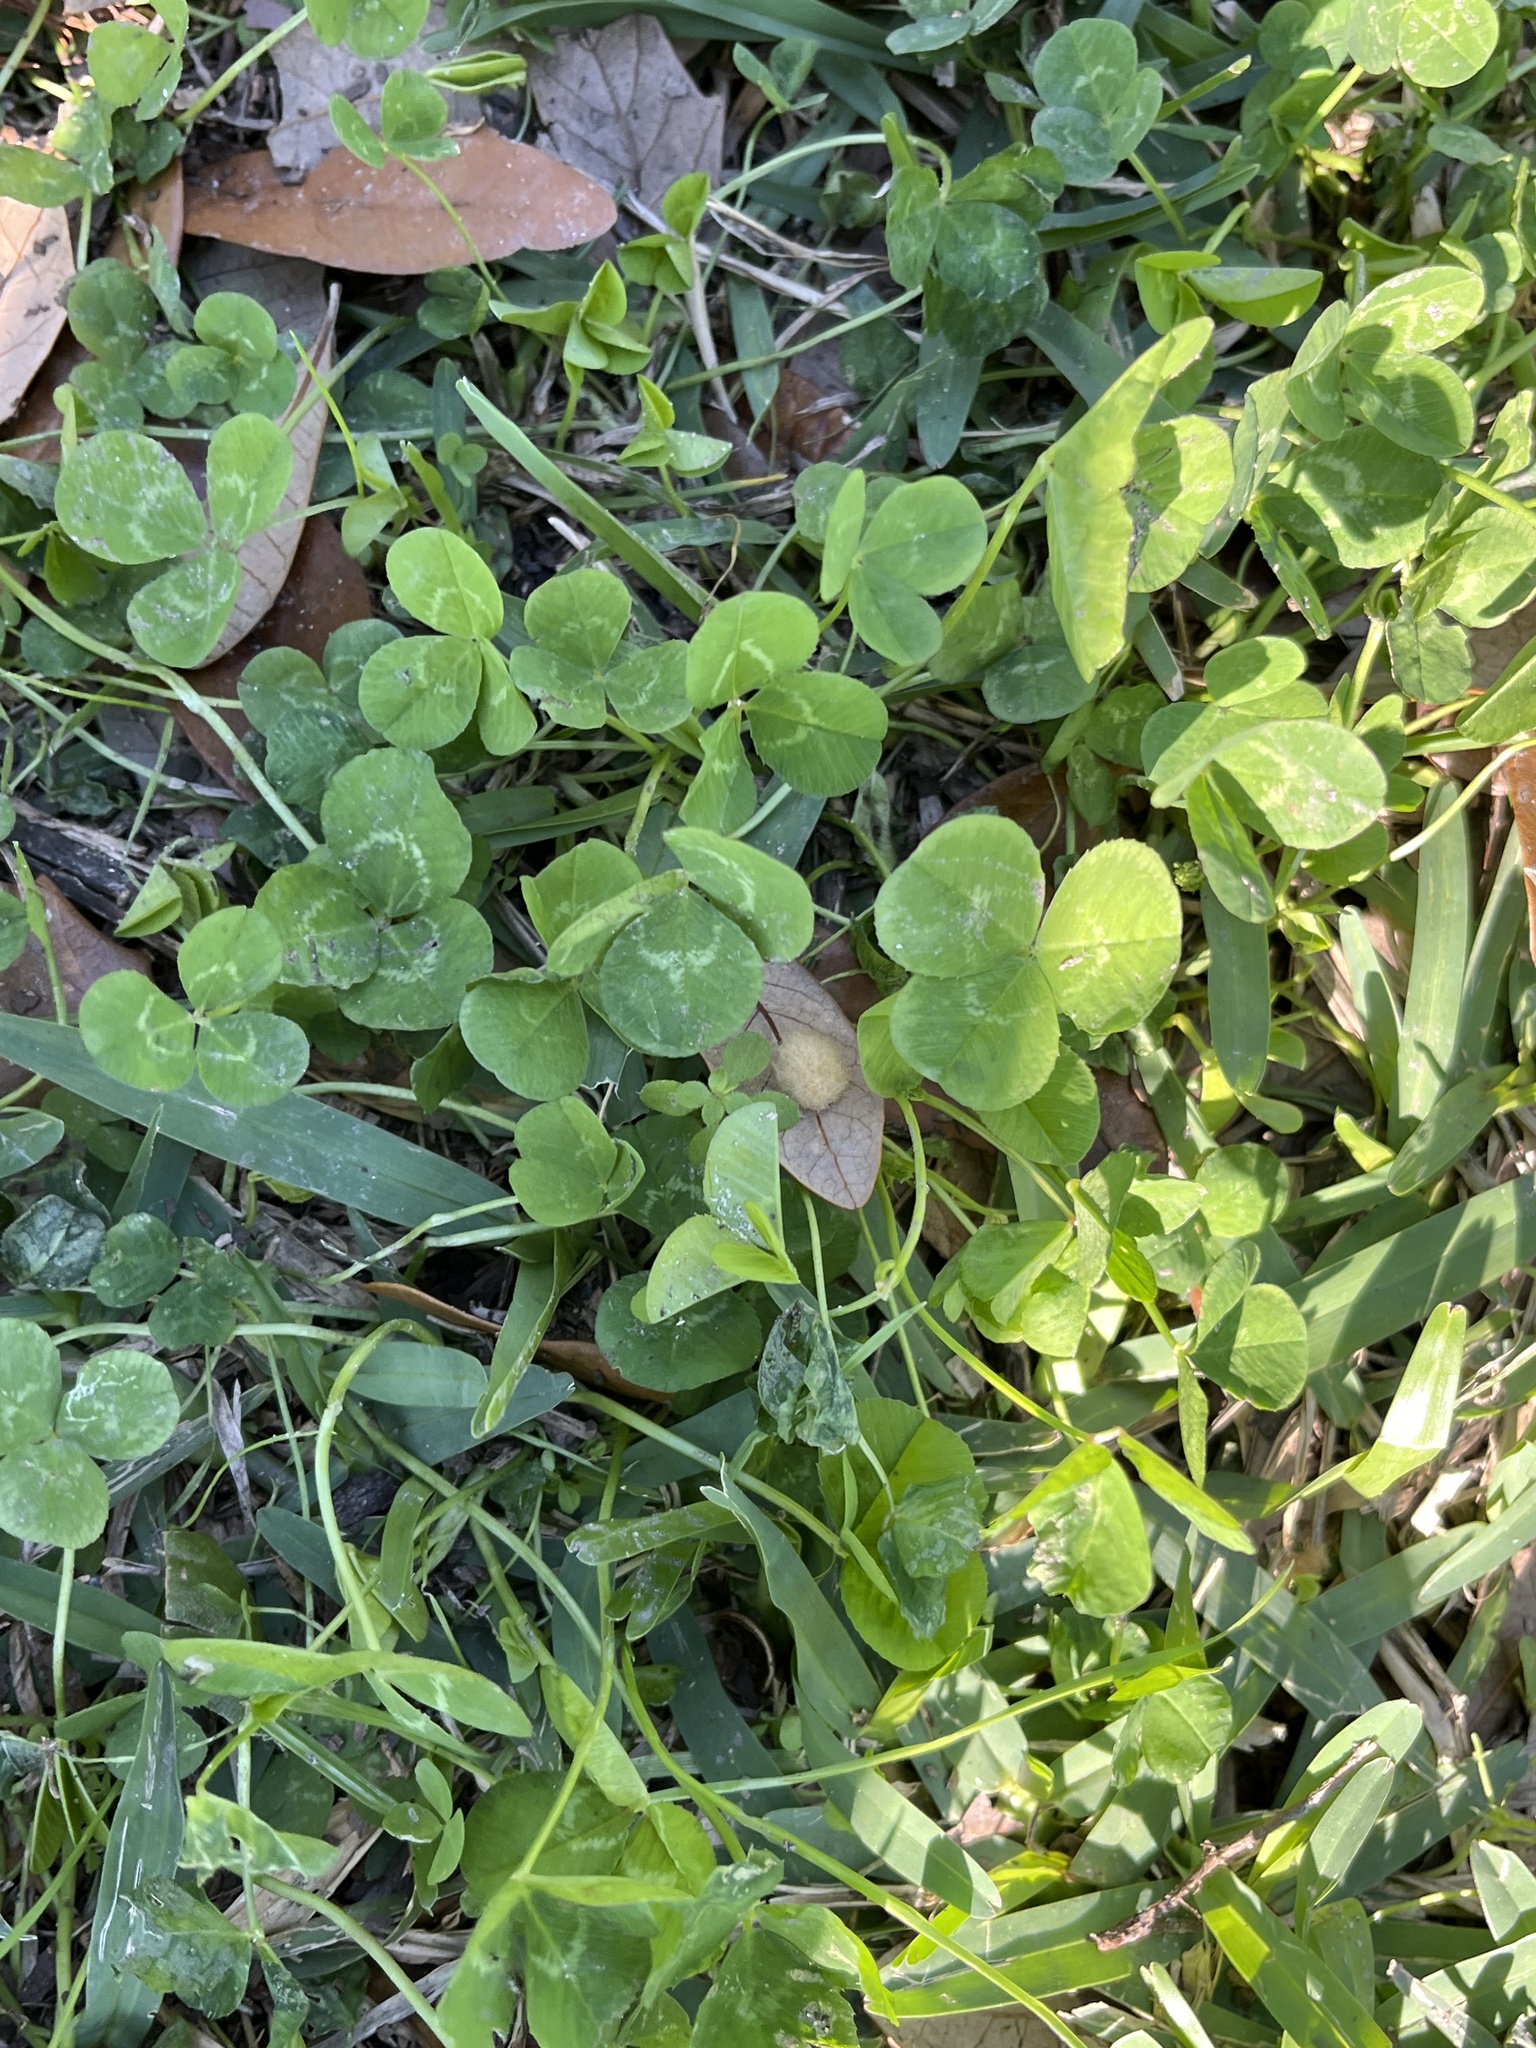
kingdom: Plantae
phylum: Tracheophyta
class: Magnoliopsida
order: Fabales
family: Fabaceae
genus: Trifolium
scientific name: Trifolium repens
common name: White clover
